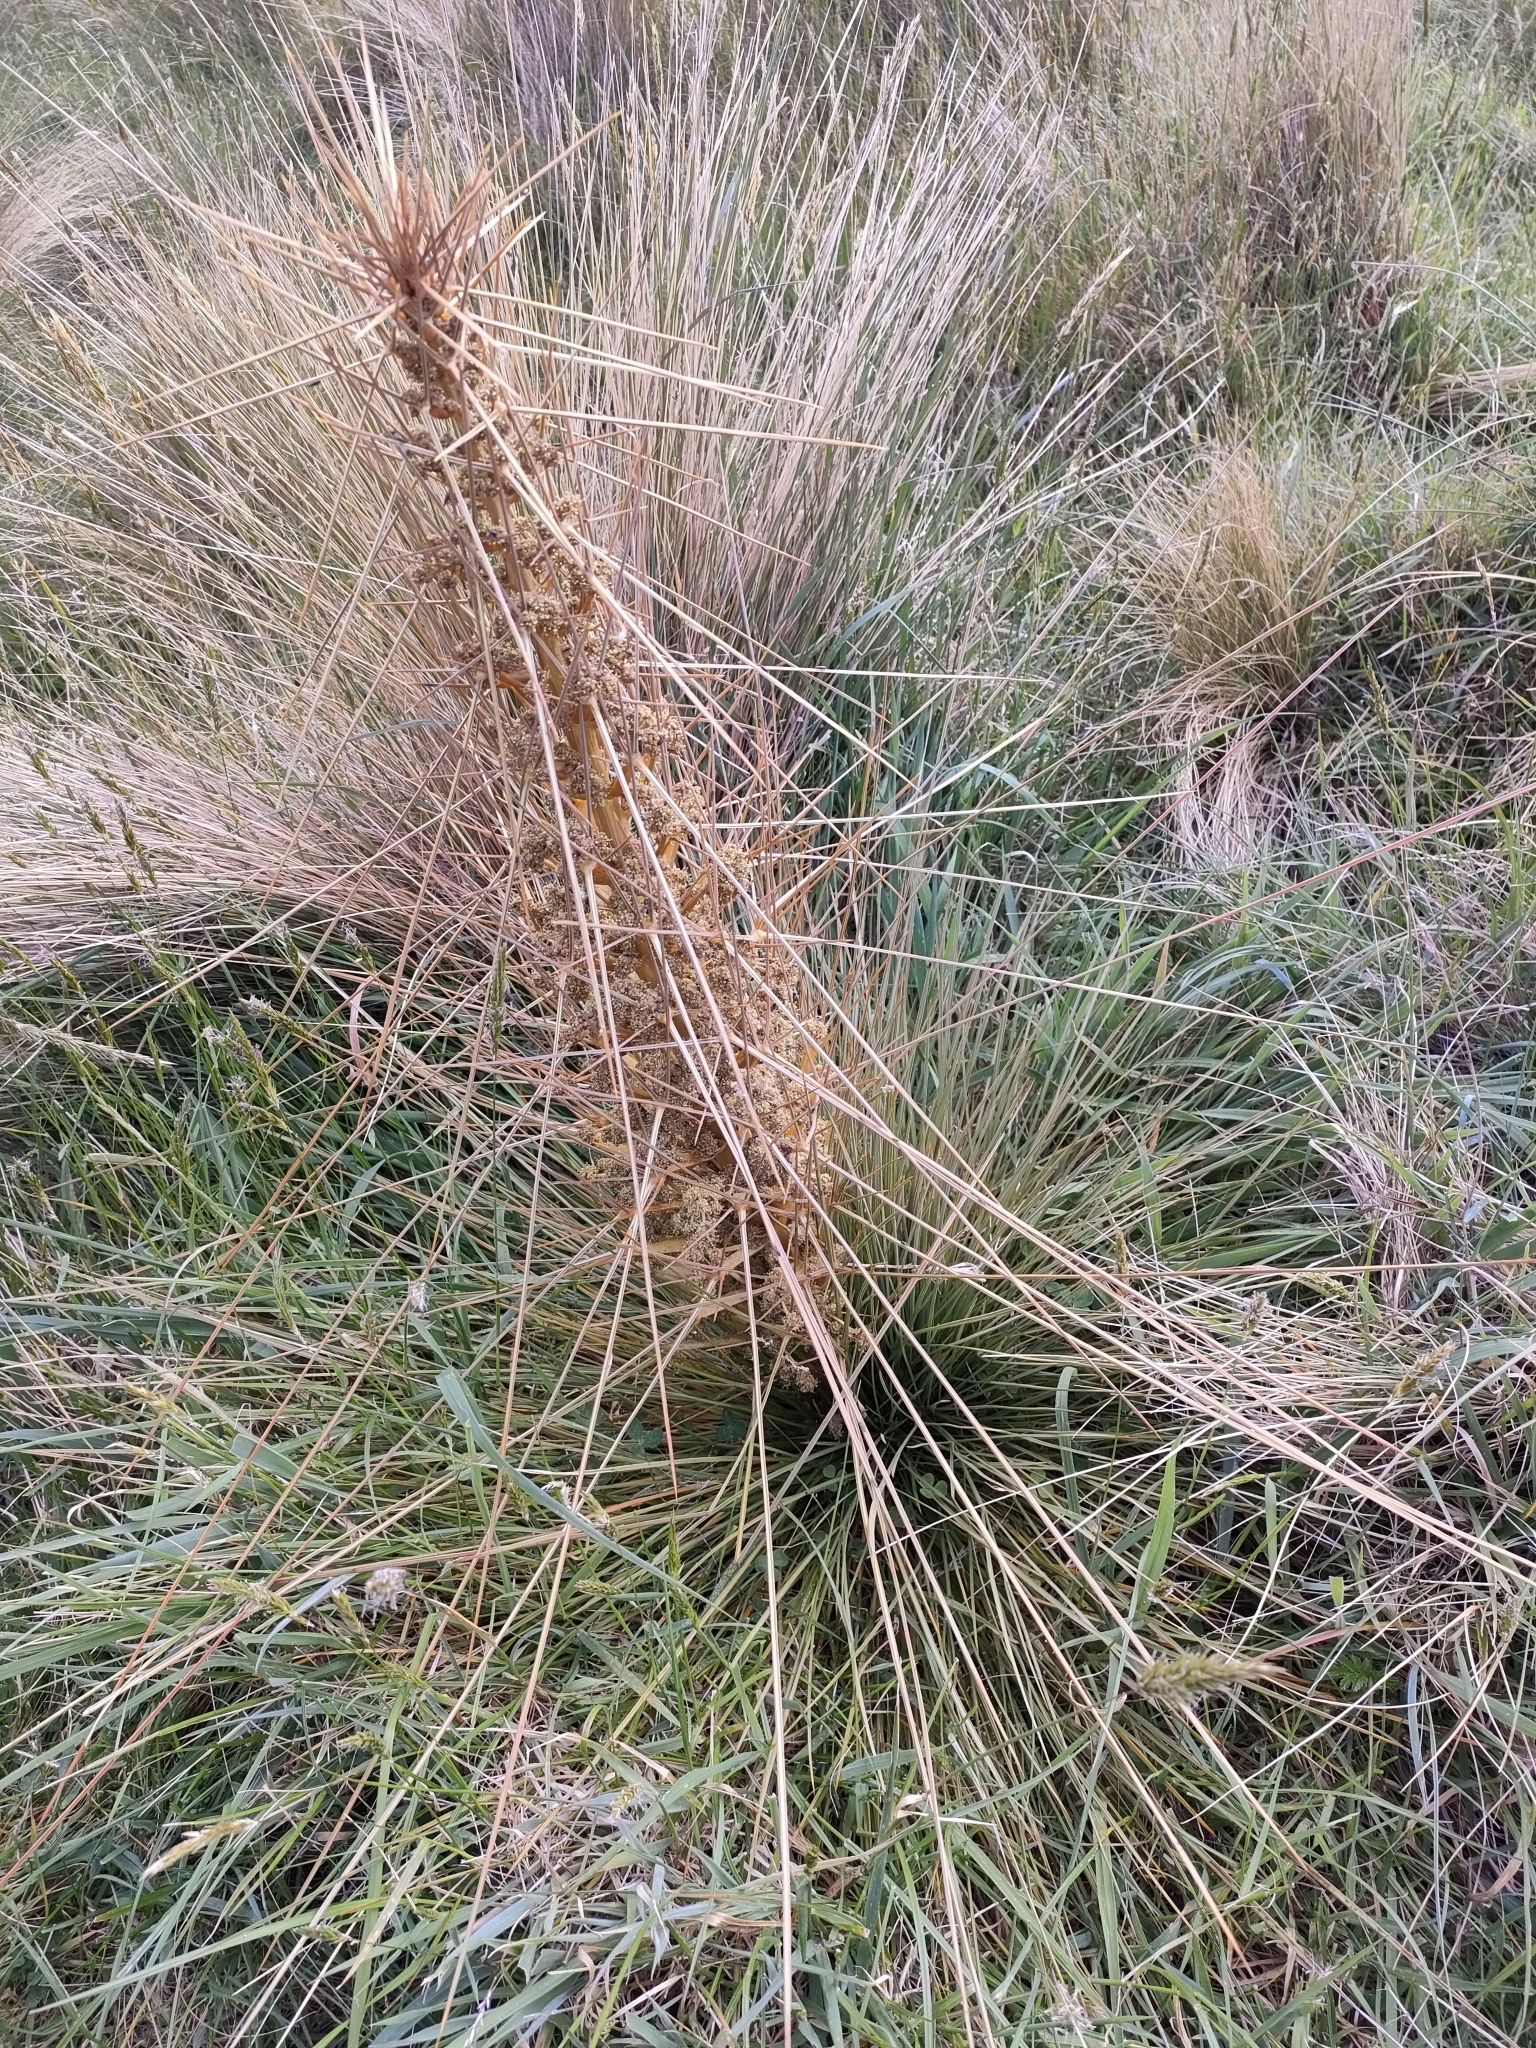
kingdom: Plantae
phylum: Tracheophyta
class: Magnoliopsida
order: Apiales
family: Apiaceae
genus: Aciphylla
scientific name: Aciphylla subflabellata
